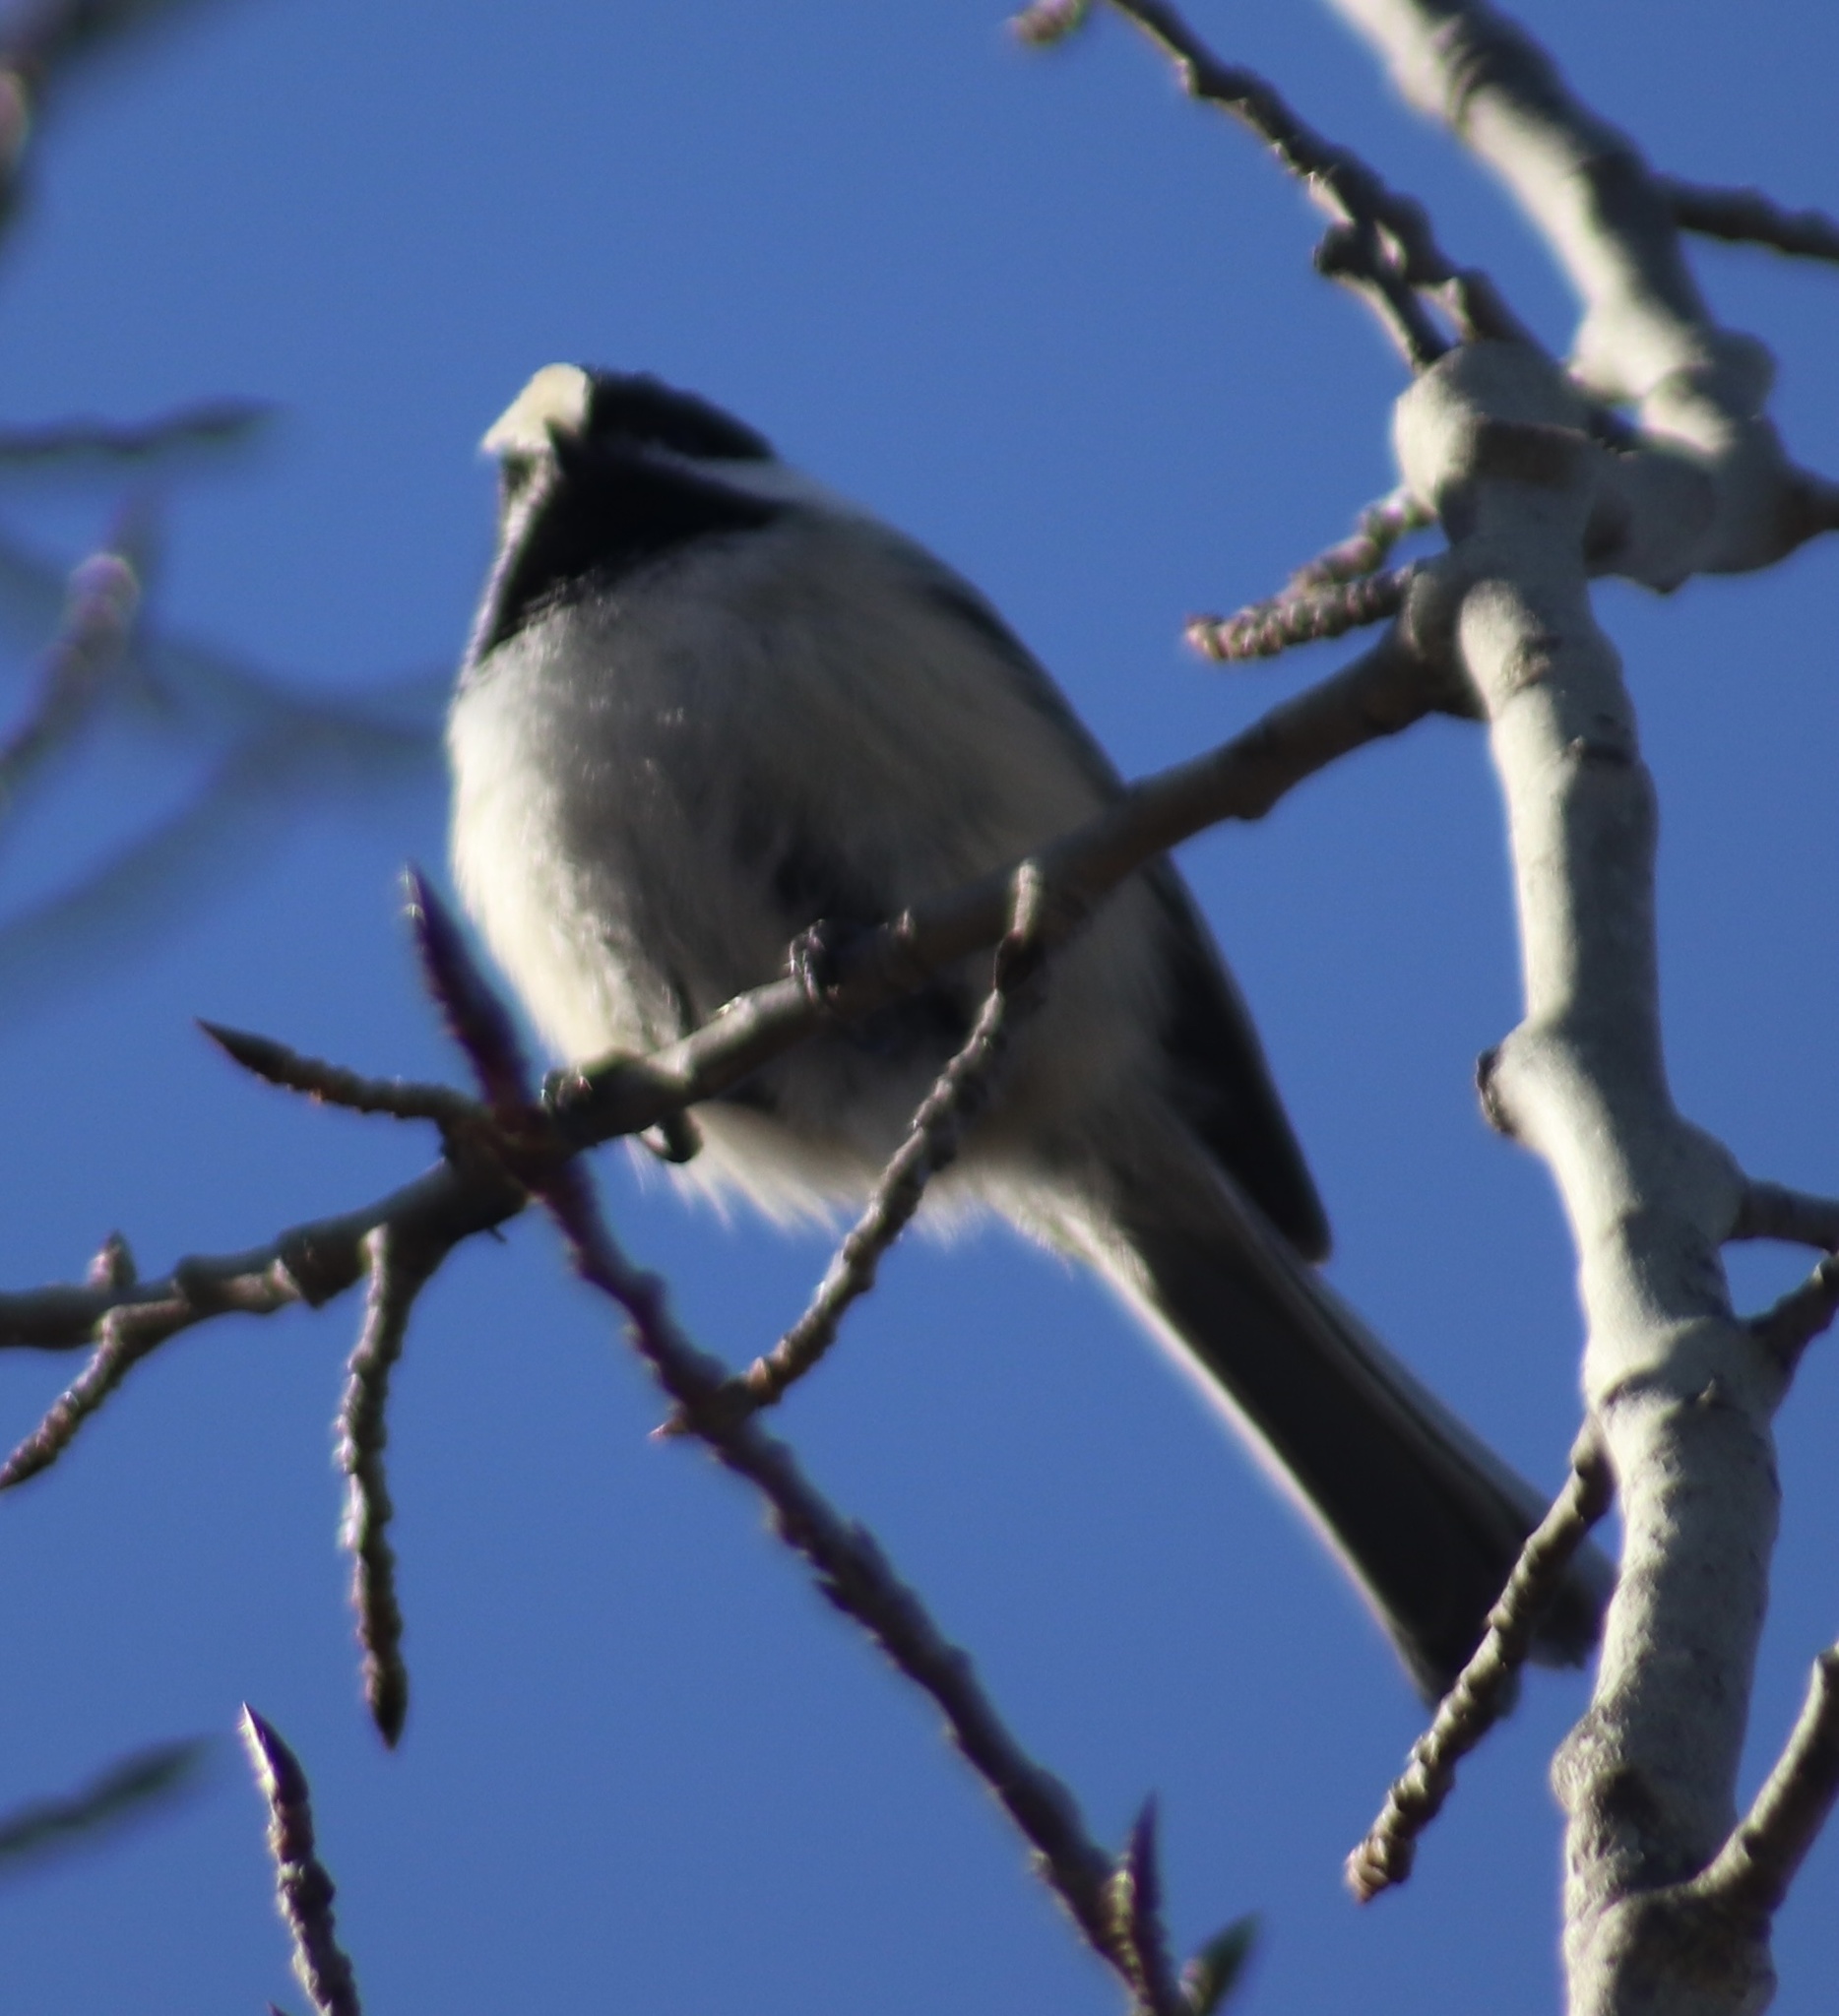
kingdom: Animalia
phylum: Chordata
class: Aves
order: Passeriformes
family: Paridae
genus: Poecile
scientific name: Poecile atricapillus
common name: Black-capped chickadee
